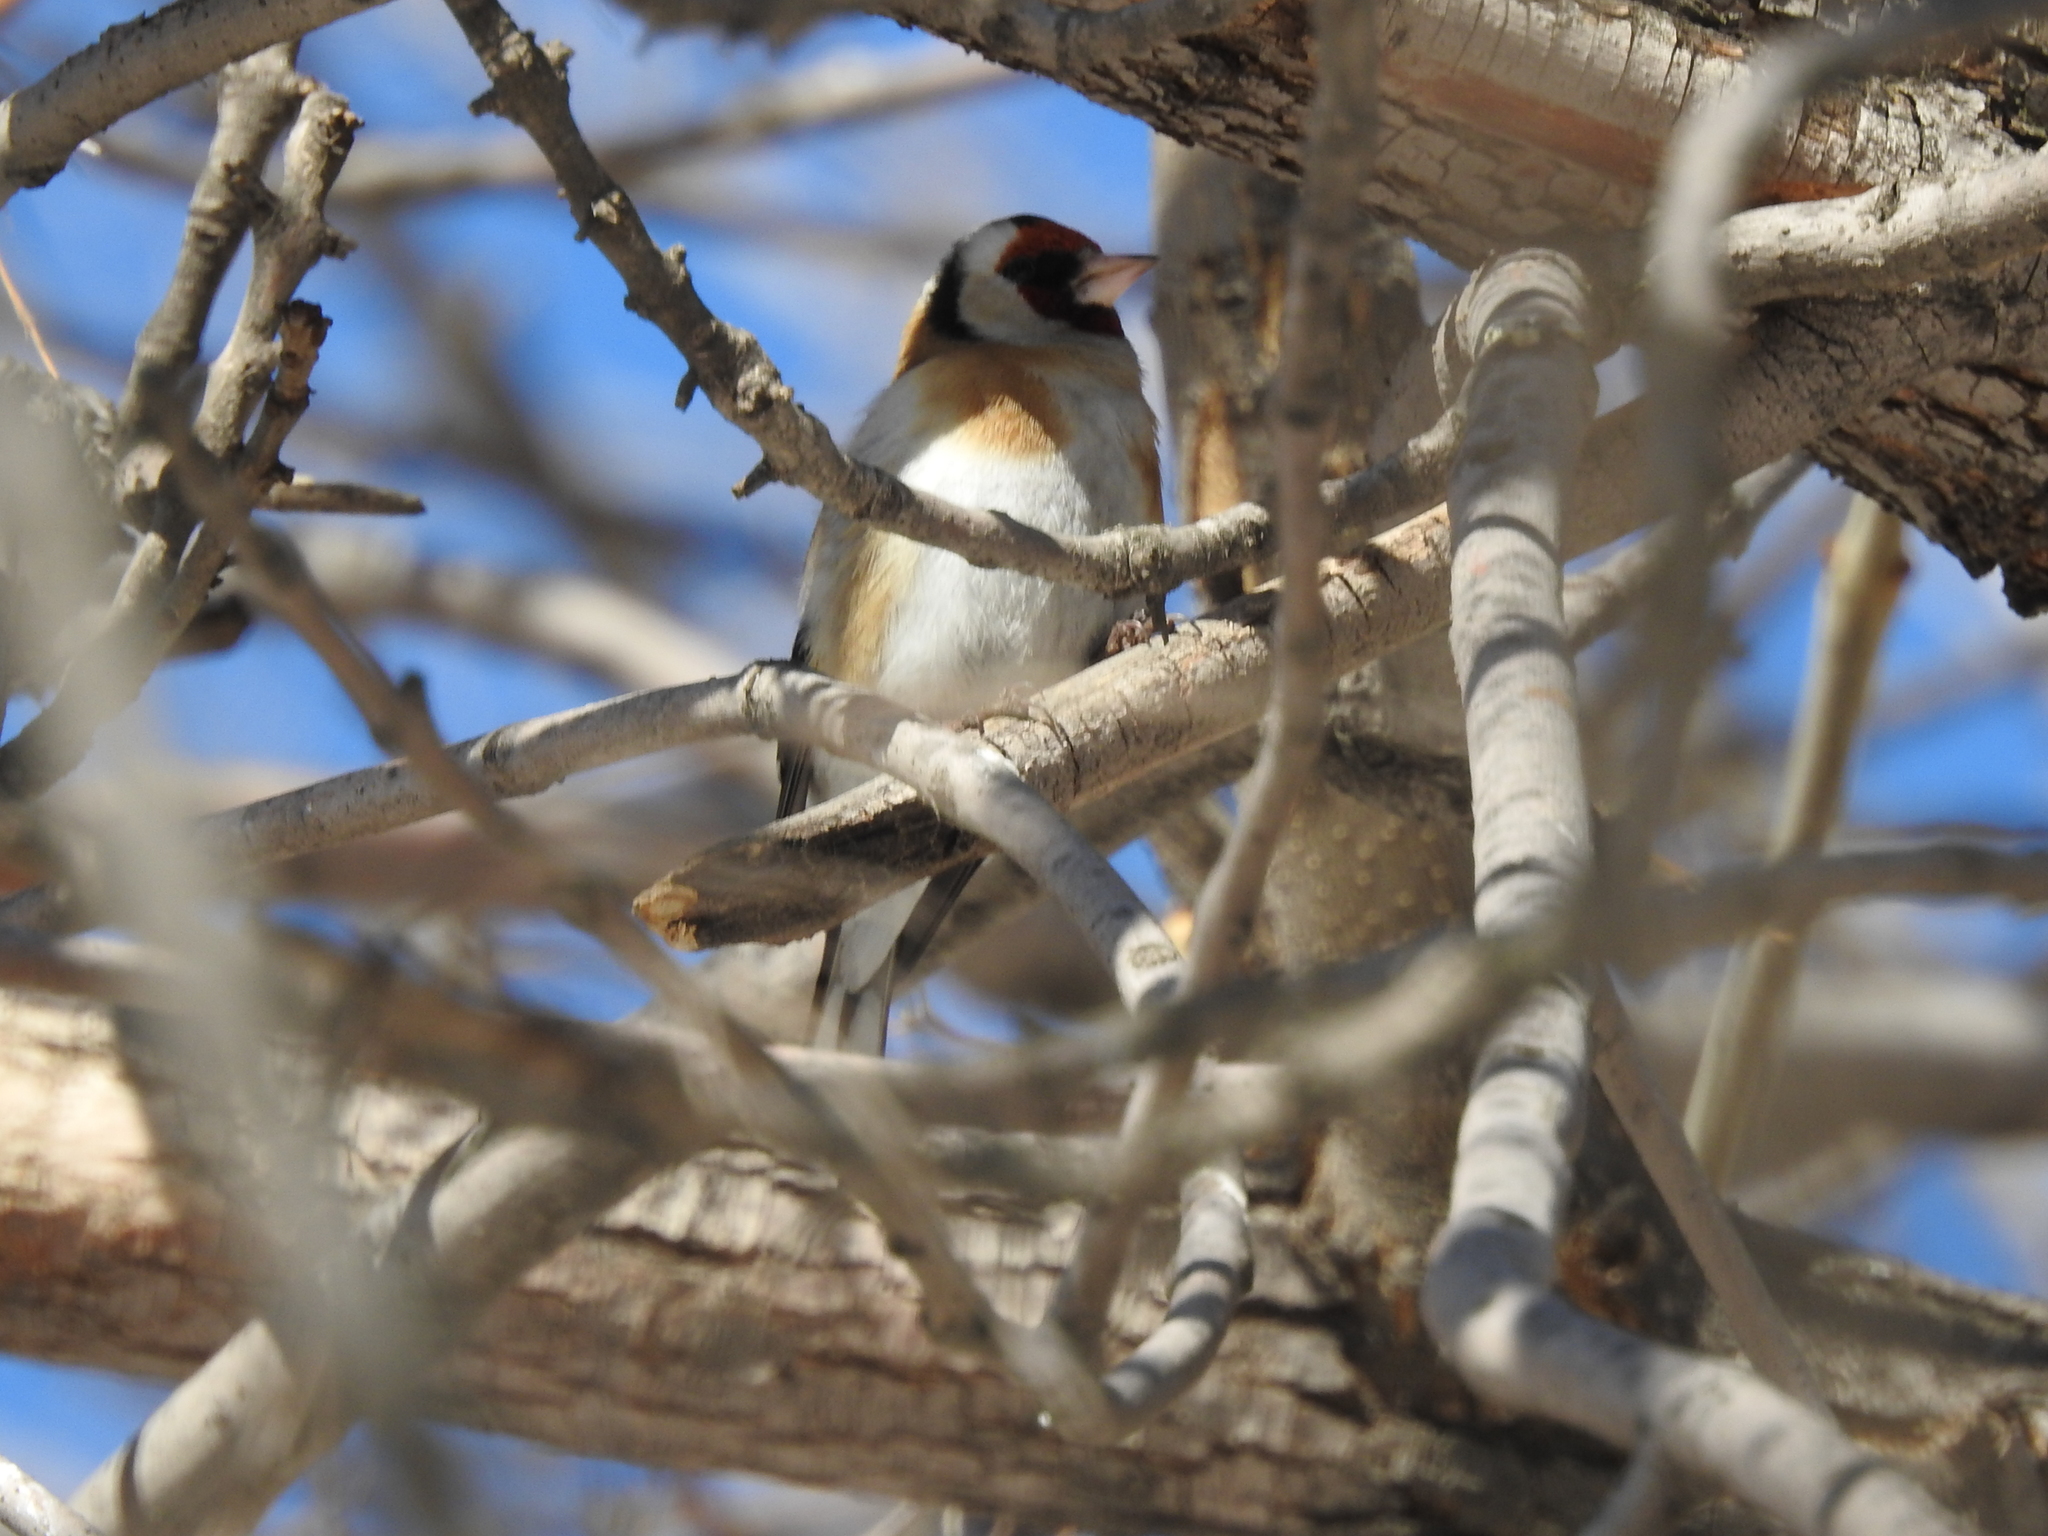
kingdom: Animalia
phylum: Chordata
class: Aves
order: Passeriformes
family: Fringillidae
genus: Carduelis
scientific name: Carduelis carduelis
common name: European goldfinch
